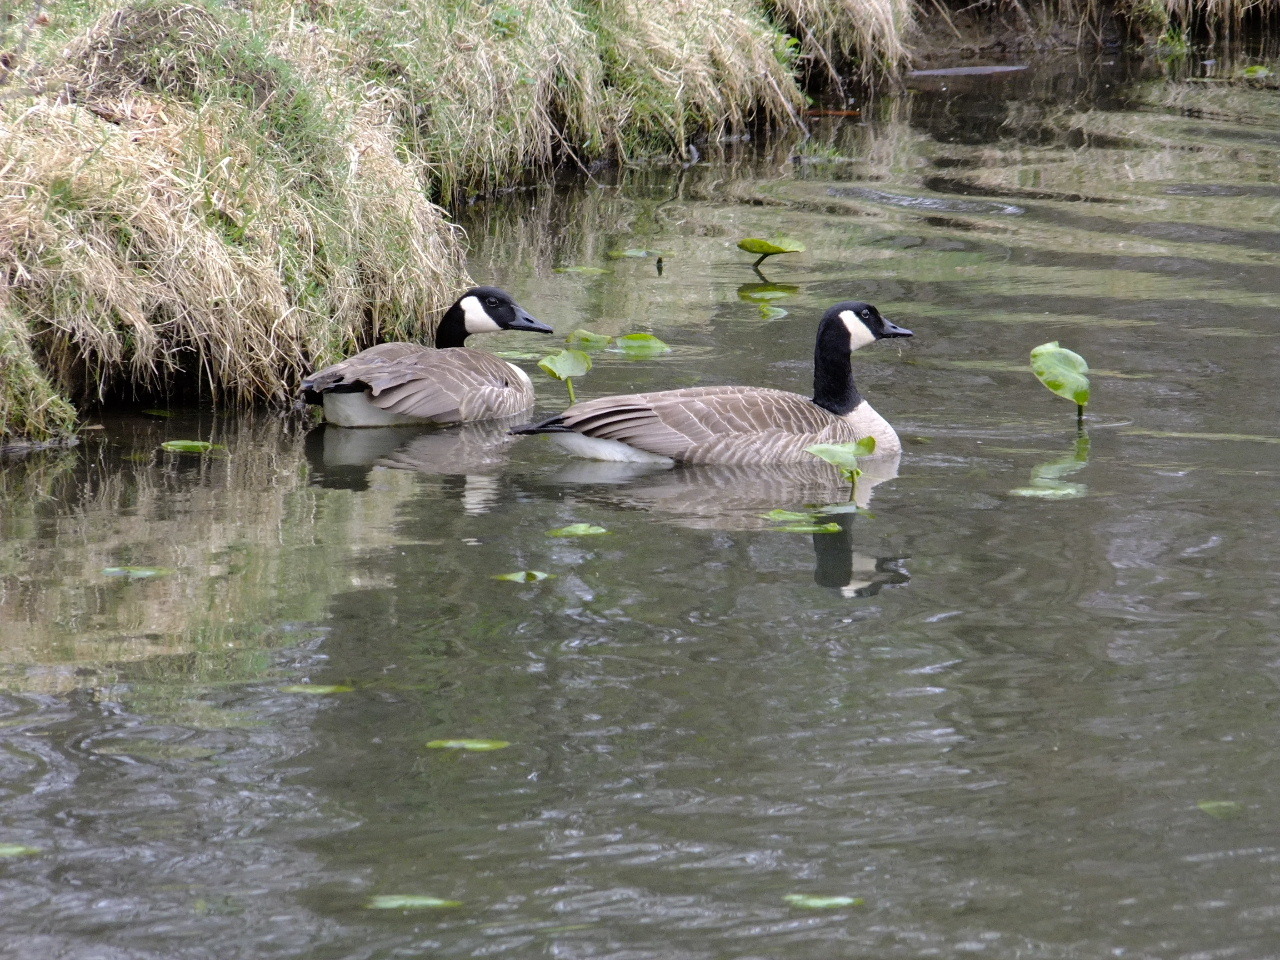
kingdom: Animalia
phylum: Chordata
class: Aves
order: Anseriformes
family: Anatidae
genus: Branta
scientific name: Branta canadensis
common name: Canada goose
